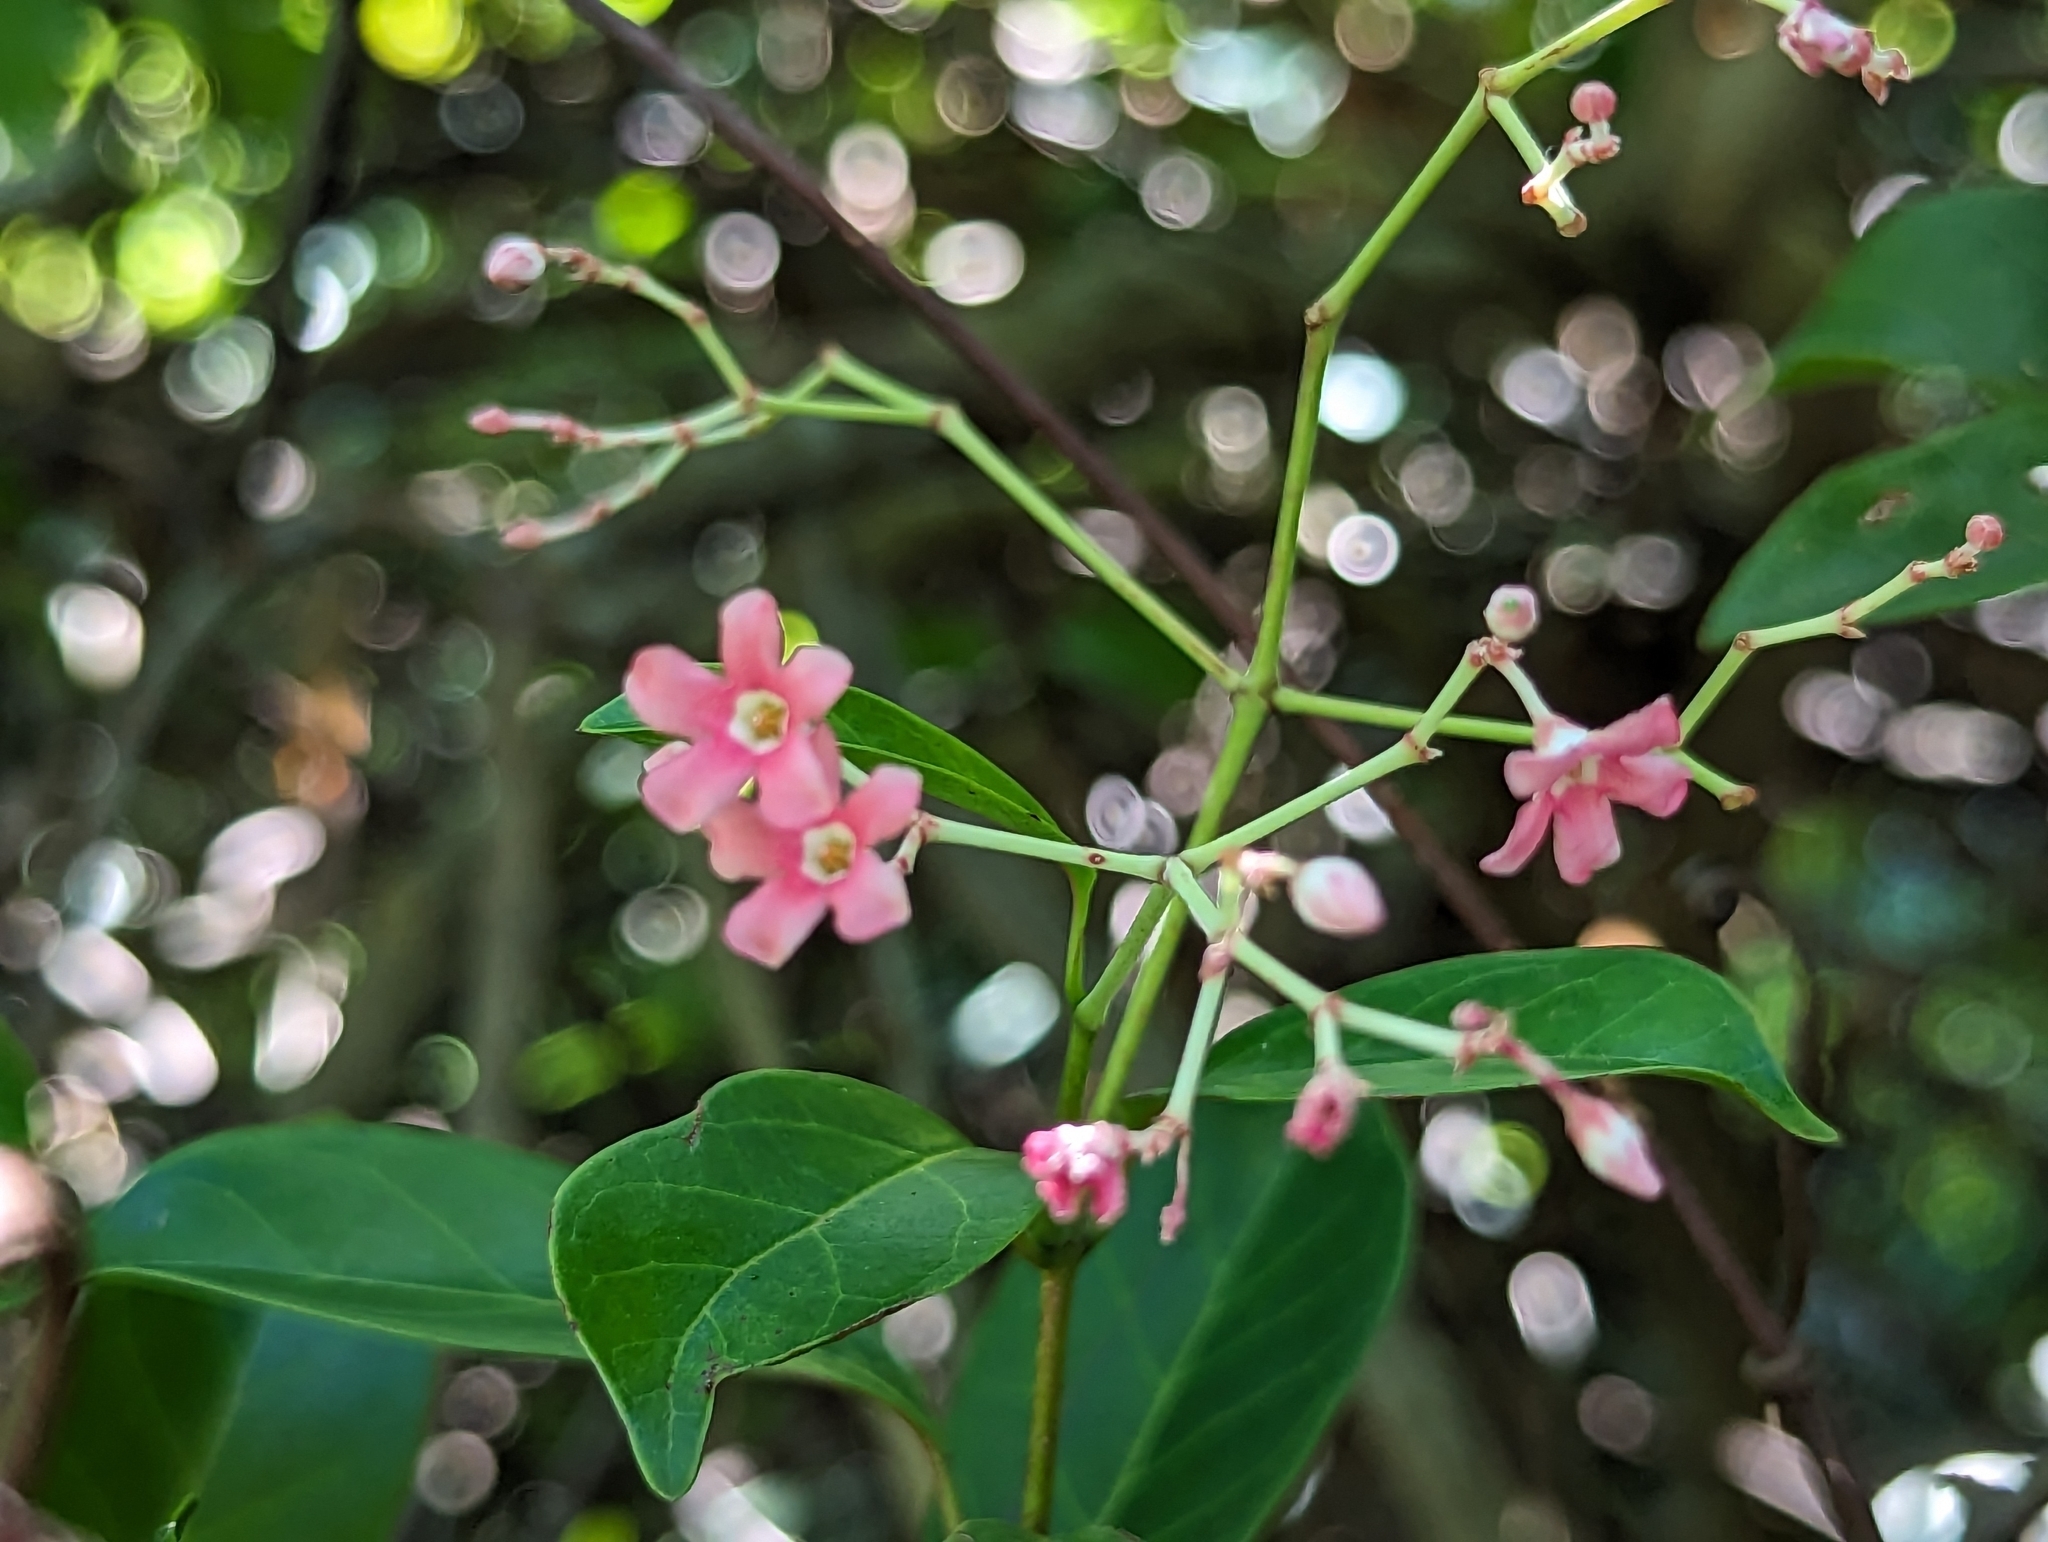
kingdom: Plantae
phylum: Tracheophyta
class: Magnoliopsida
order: Gentianales
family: Apocynaceae
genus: Urceola
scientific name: Urceola rosea
